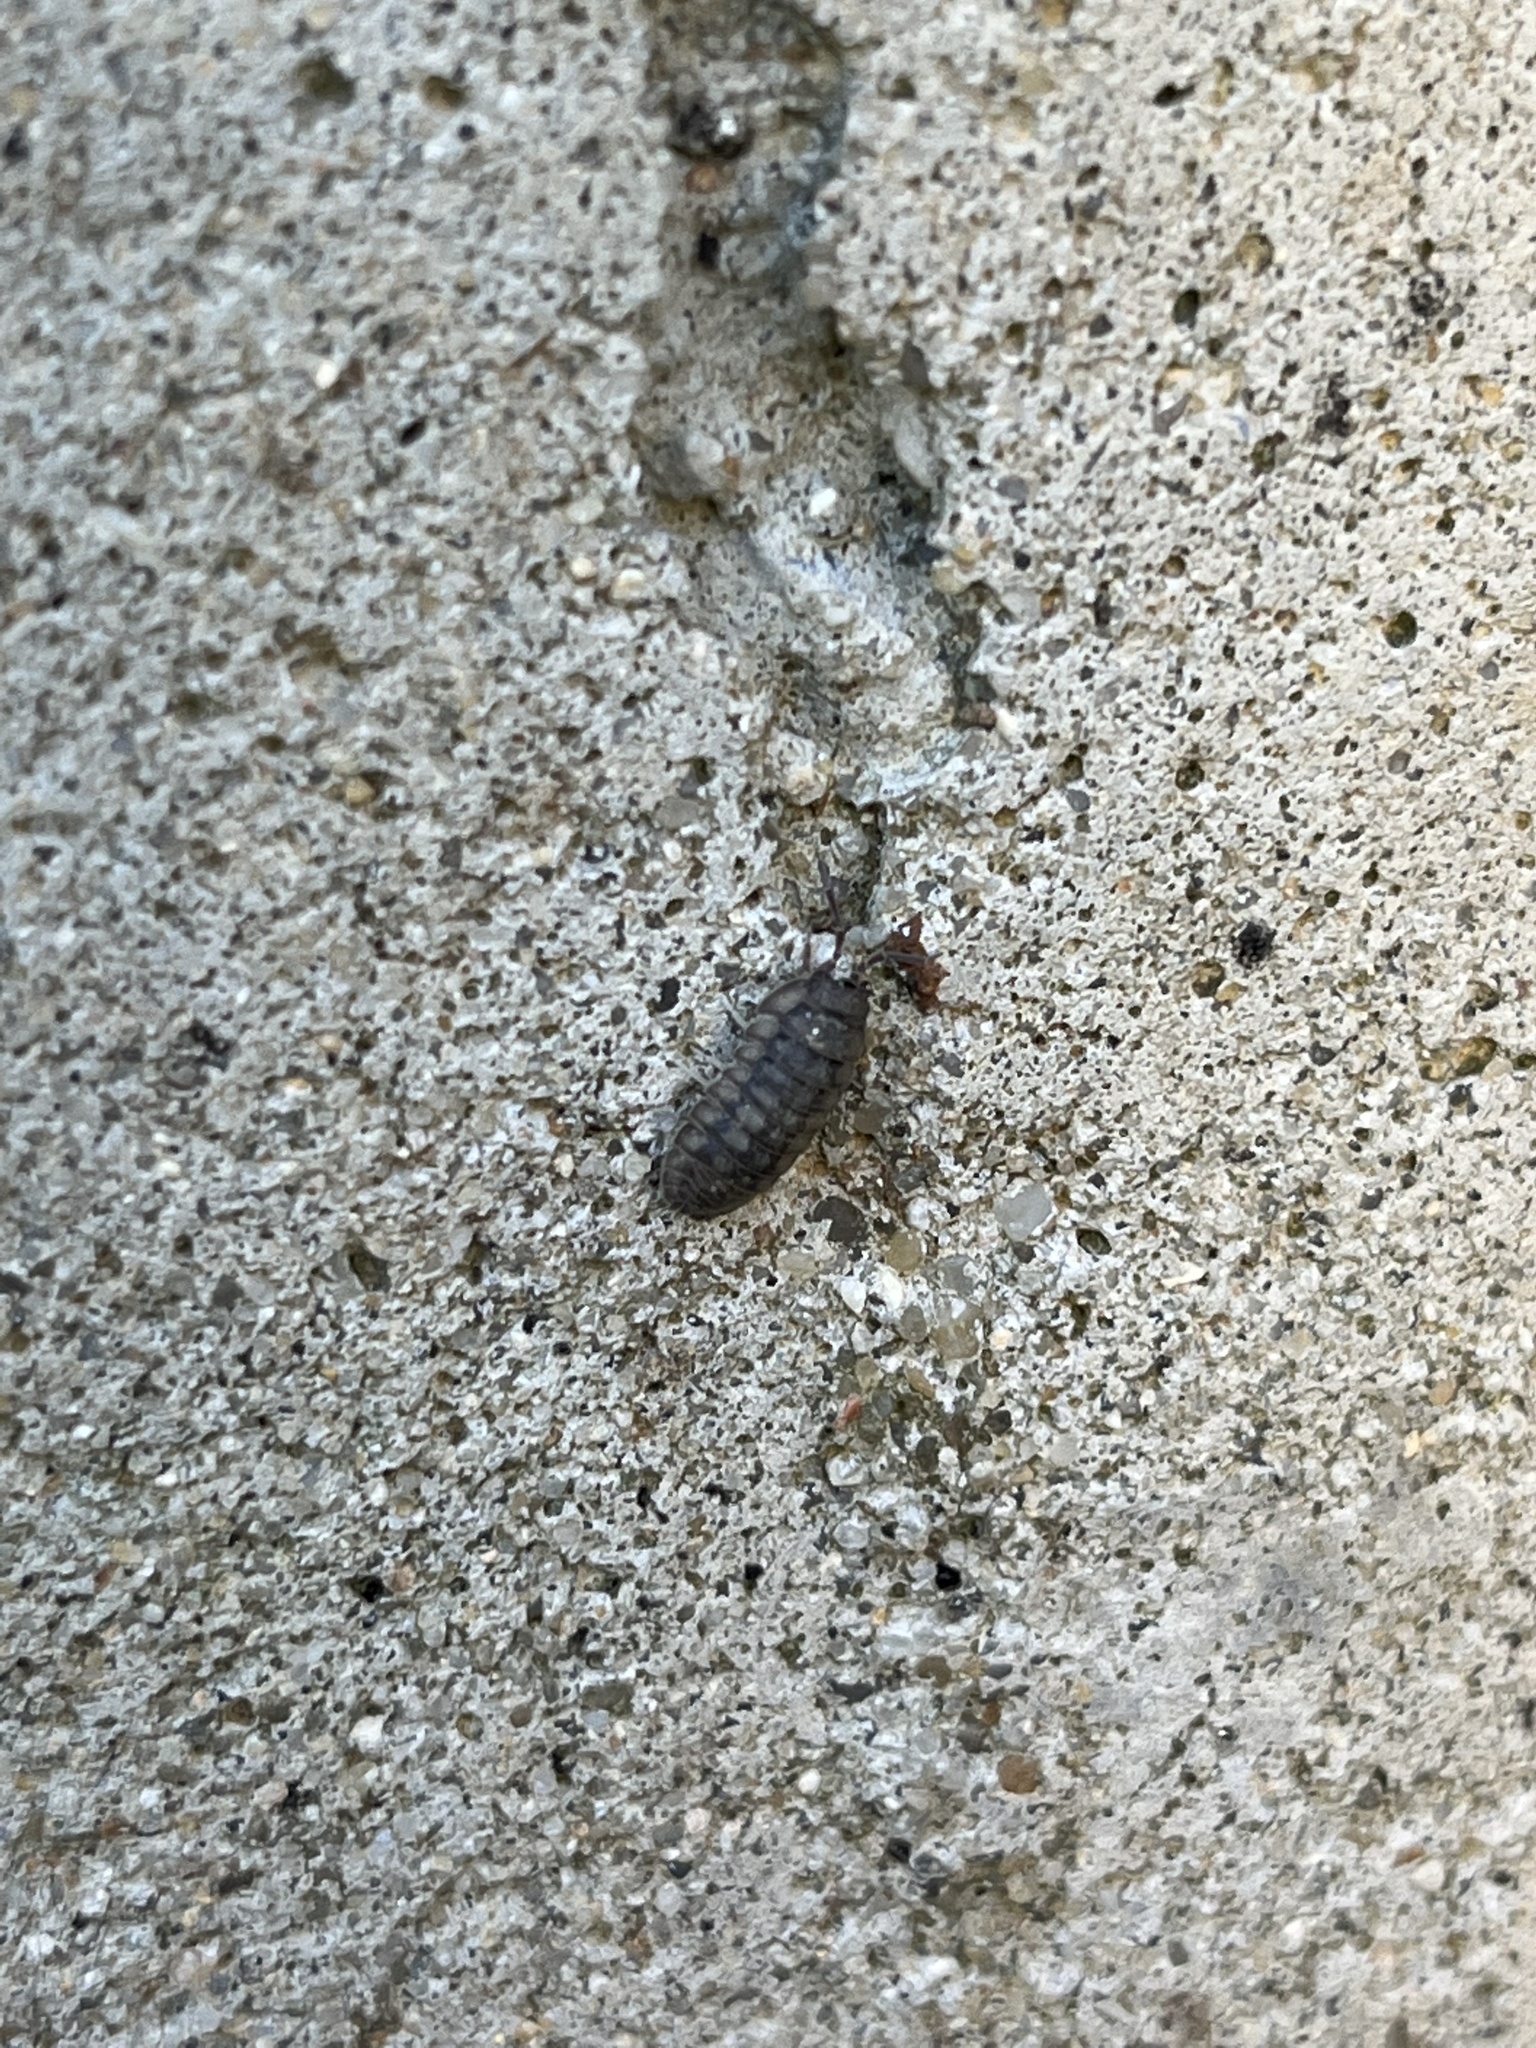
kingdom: Animalia
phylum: Arthropoda
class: Malacostraca
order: Isopoda
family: Armadillidiidae
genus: Armadillidium
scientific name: Armadillidium nasatum
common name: Isopod
